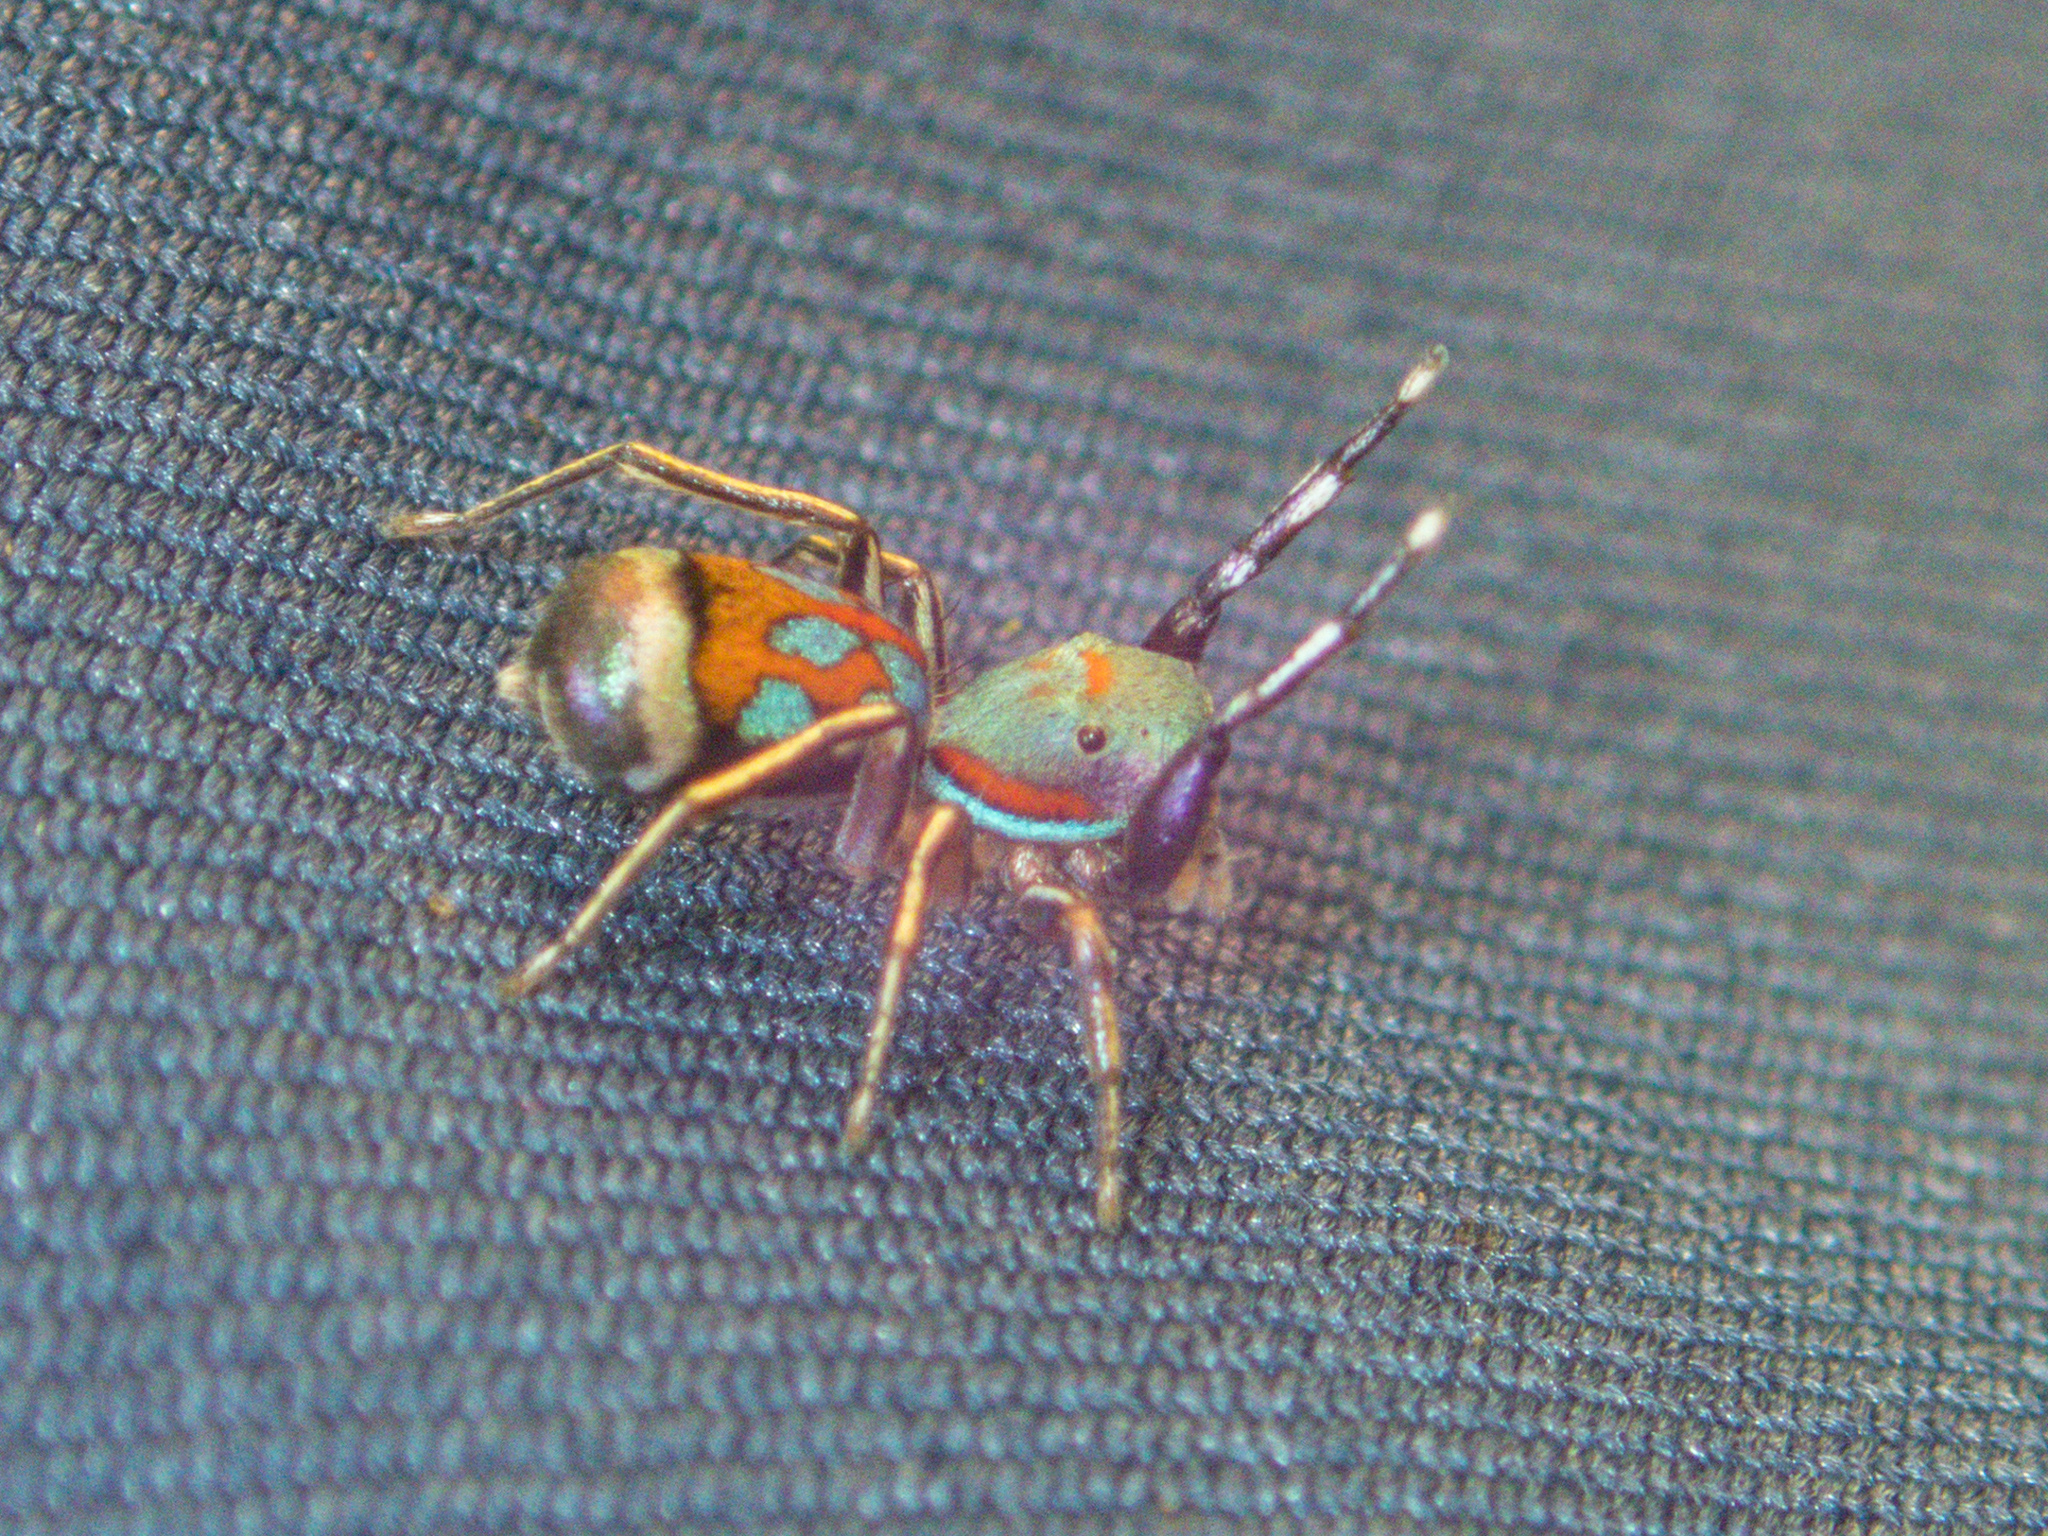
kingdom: Animalia
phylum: Arthropoda
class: Arachnida
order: Araneae
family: Salticidae
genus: Siler
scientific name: Siler semiglaucus
